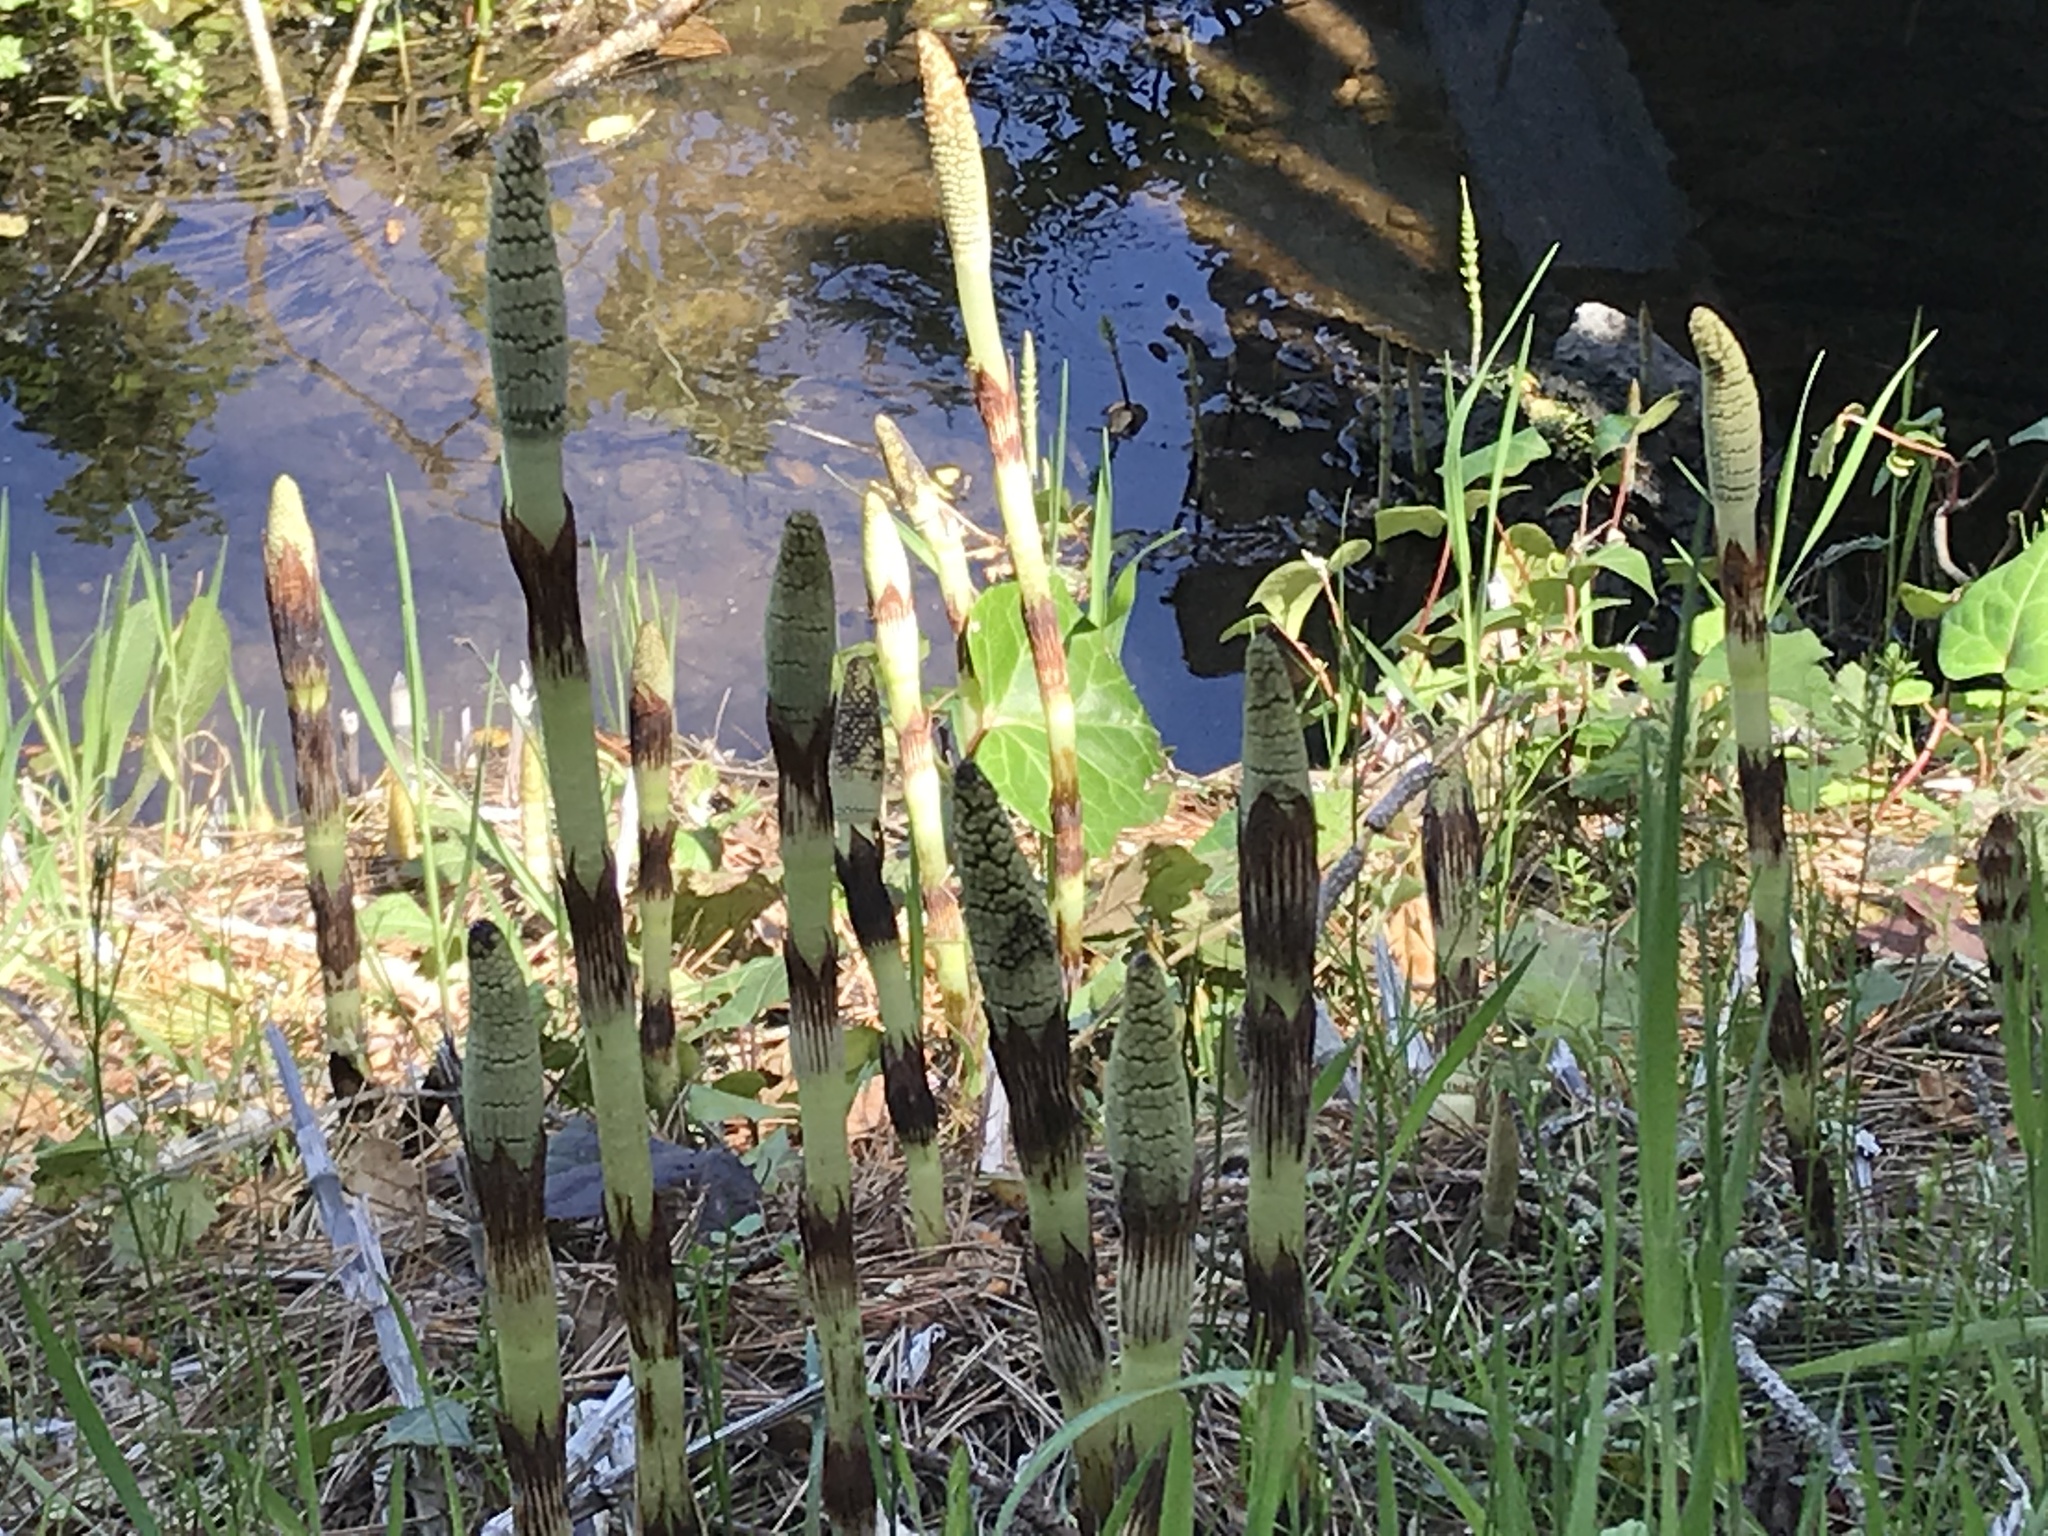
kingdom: Plantae
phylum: Tracheophyta
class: Polypodiopsida
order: Equisetales
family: Equisetaceae
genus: Equisetum
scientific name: Equisetum braunii
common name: Braun's horsetail
